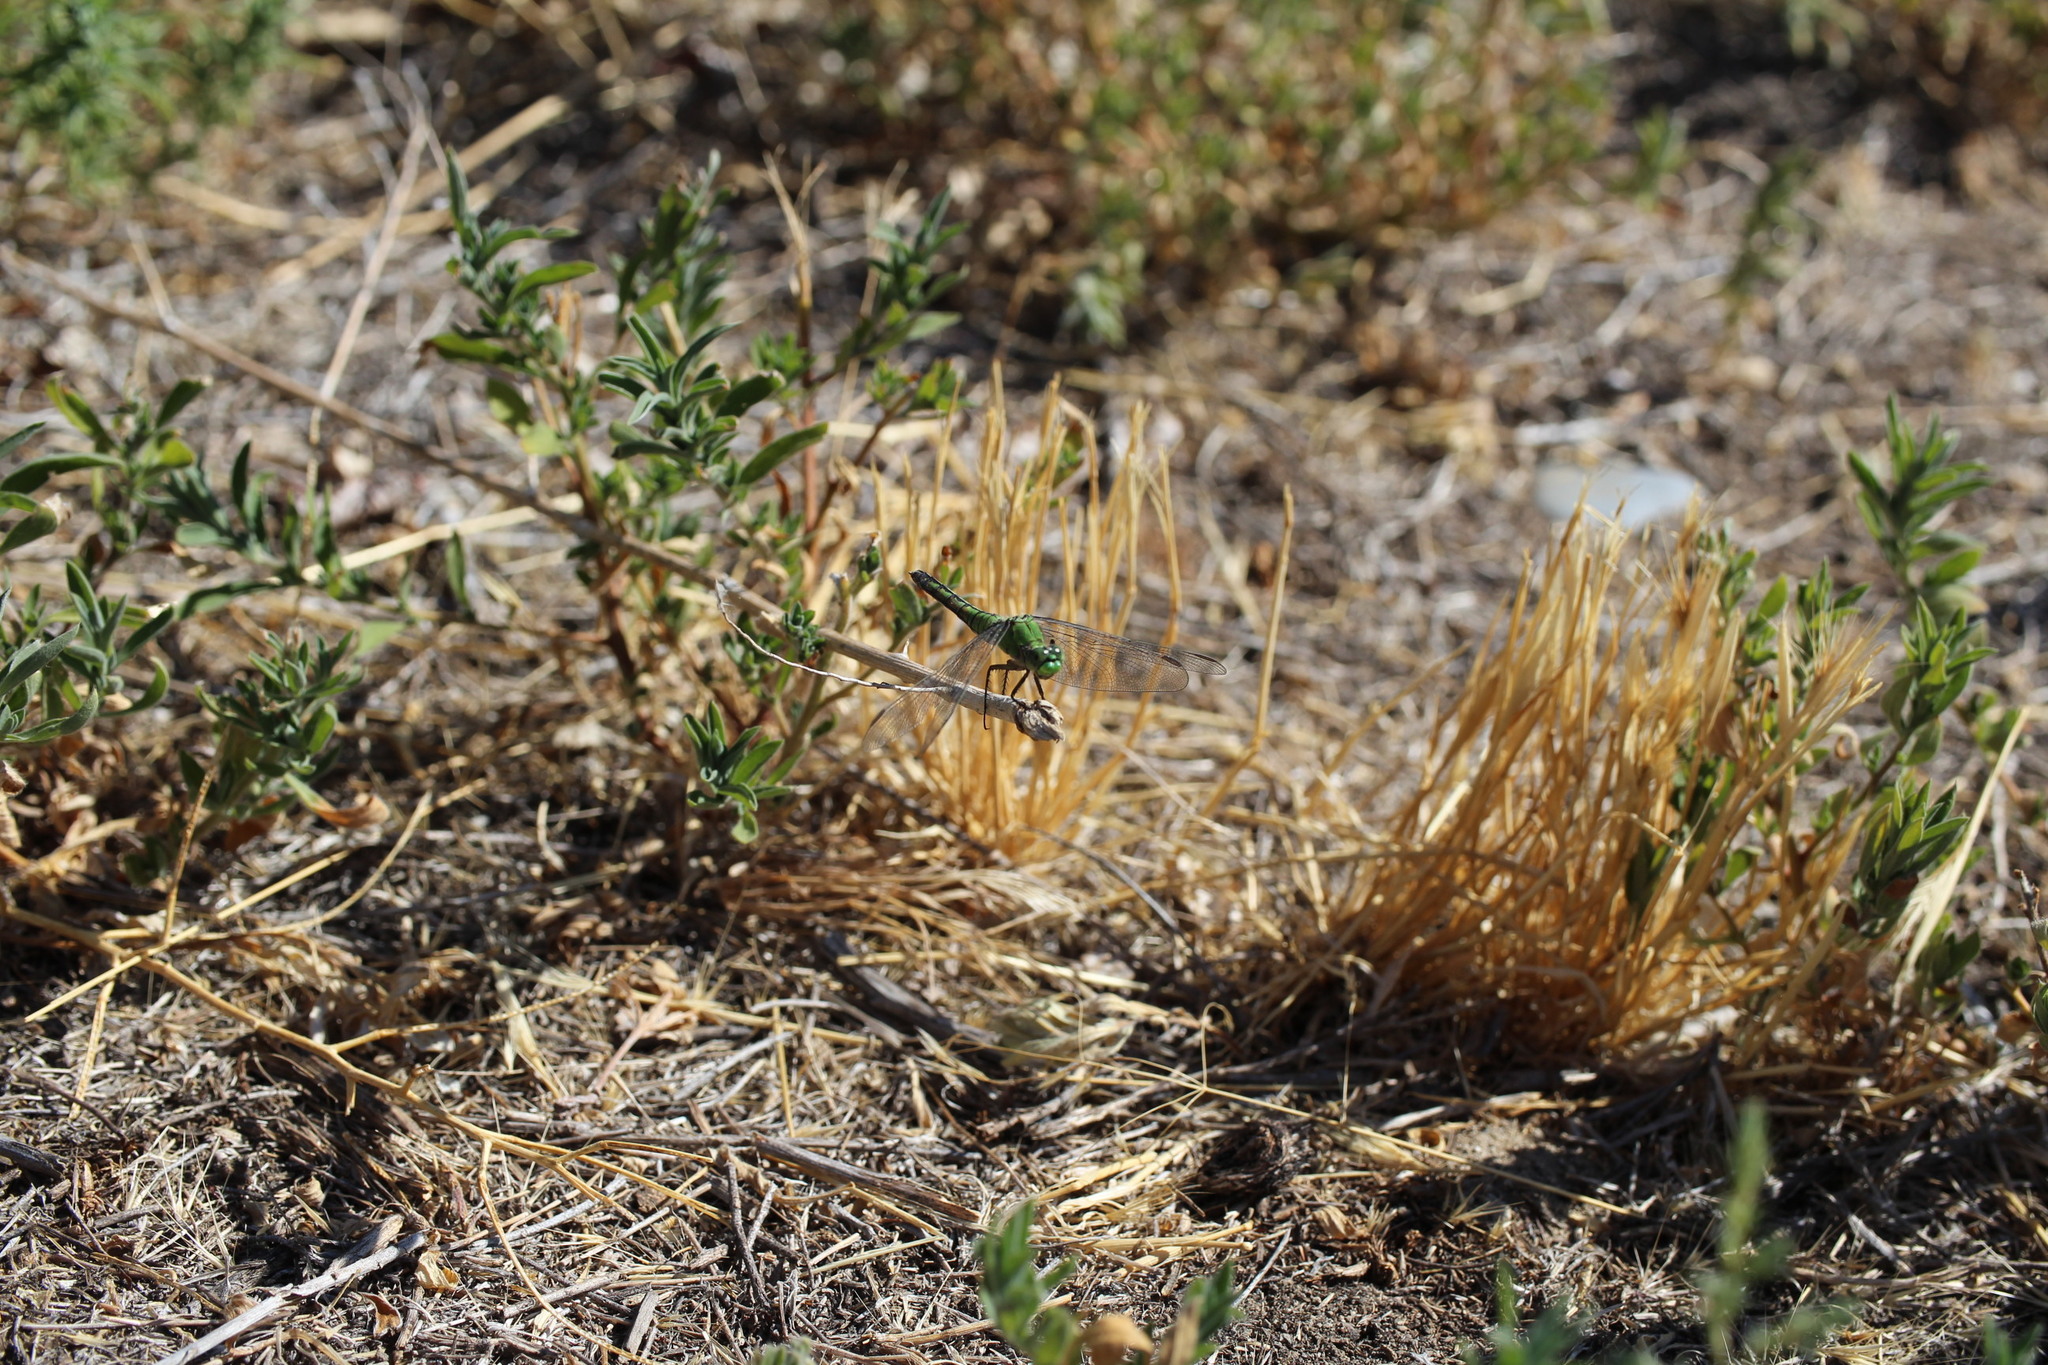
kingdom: Animalia
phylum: Arthropoda
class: Insecta
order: Odonata
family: Libellulidae
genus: Erythemis
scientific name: Erythemis collocata
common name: Western pondhawk
